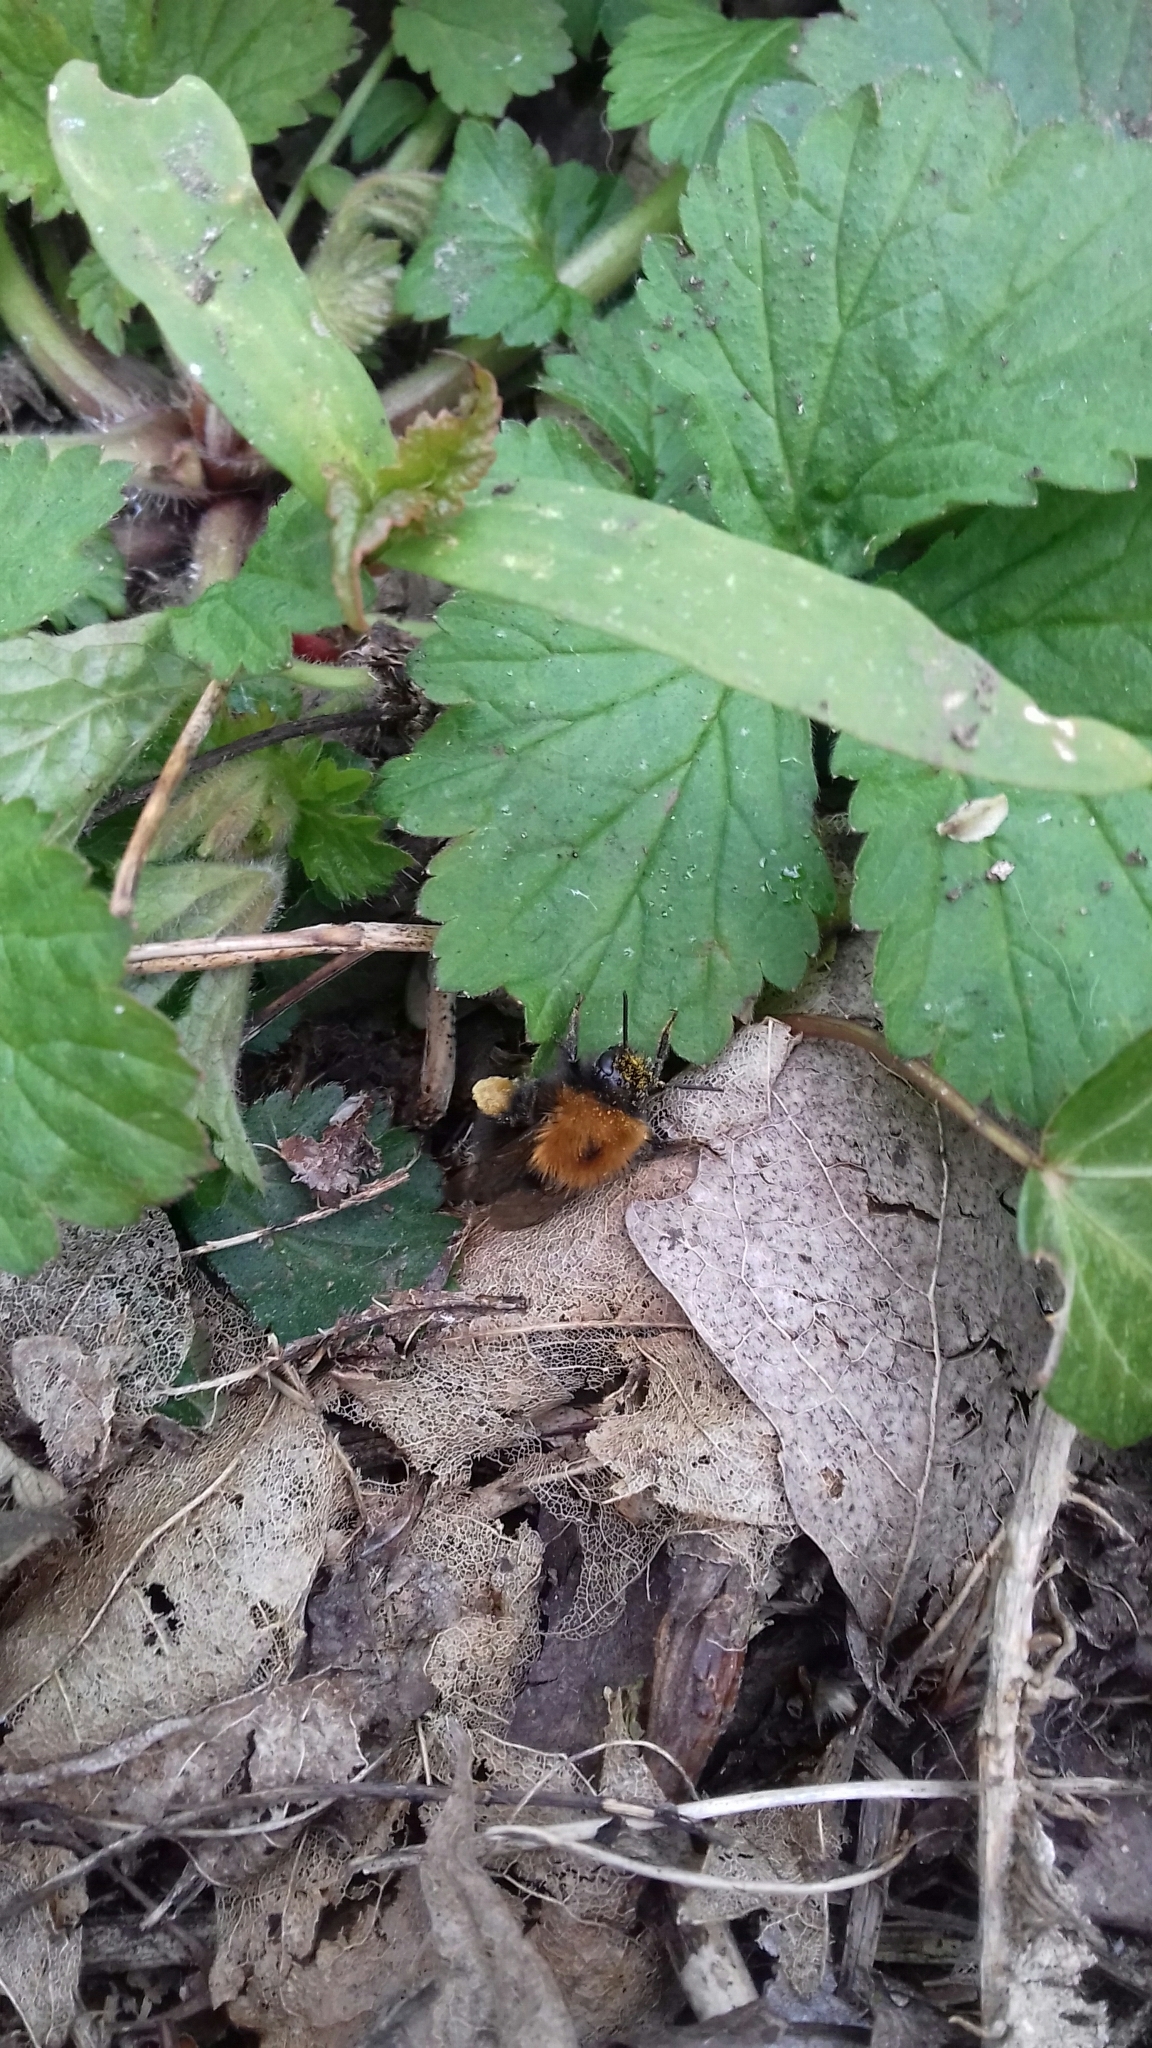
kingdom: Animalia
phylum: Arthropoda
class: Insecta
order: Hymenoptera
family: Apidae
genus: Bombus
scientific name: Bombus hypnorum
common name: New garden bumblebee
